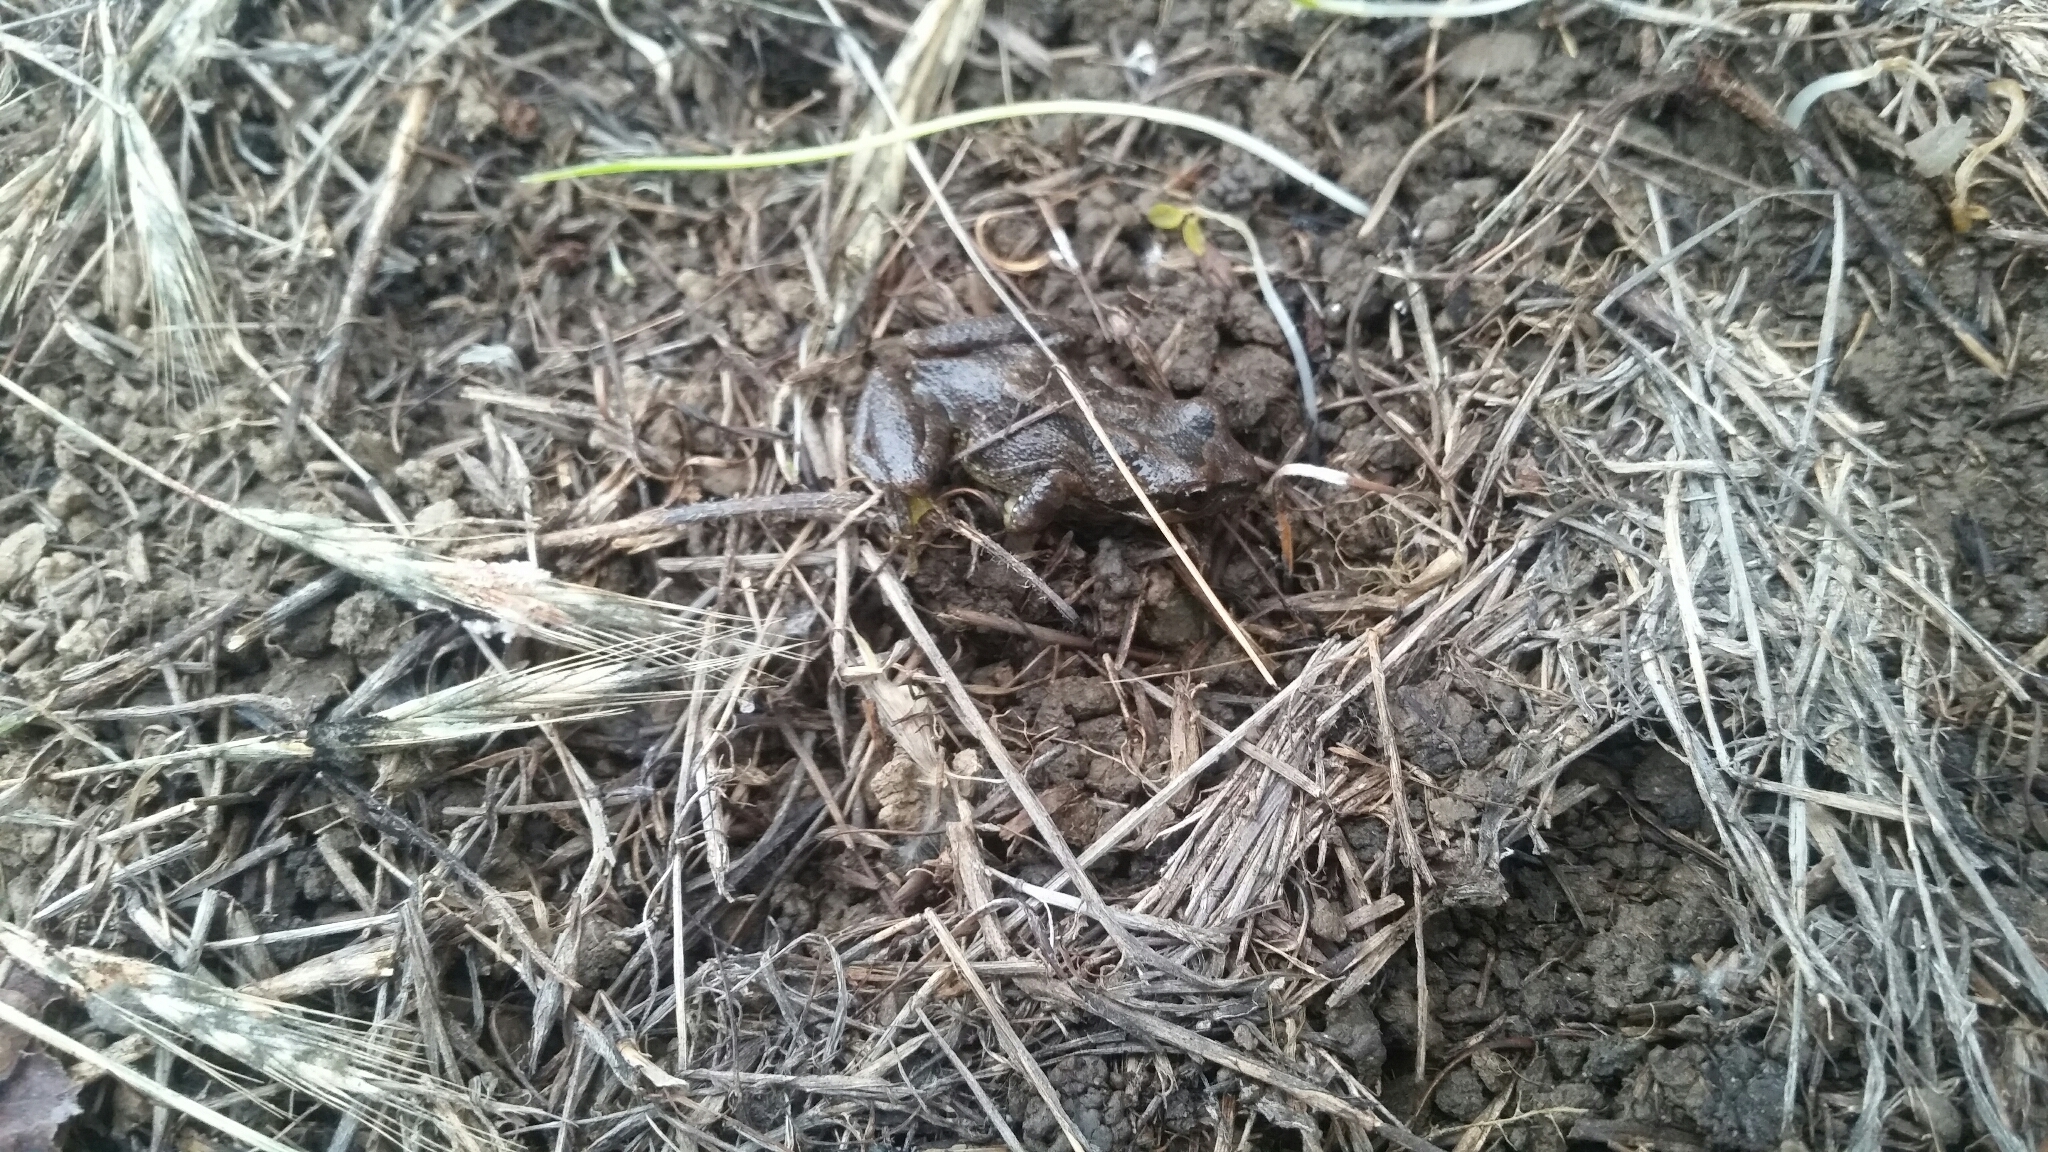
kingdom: Animalia
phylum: Chordata
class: Amphibia
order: Anura
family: Hylidae
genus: Pseudacris
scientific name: Pseudacris regilla
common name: Pacific chorus frog
